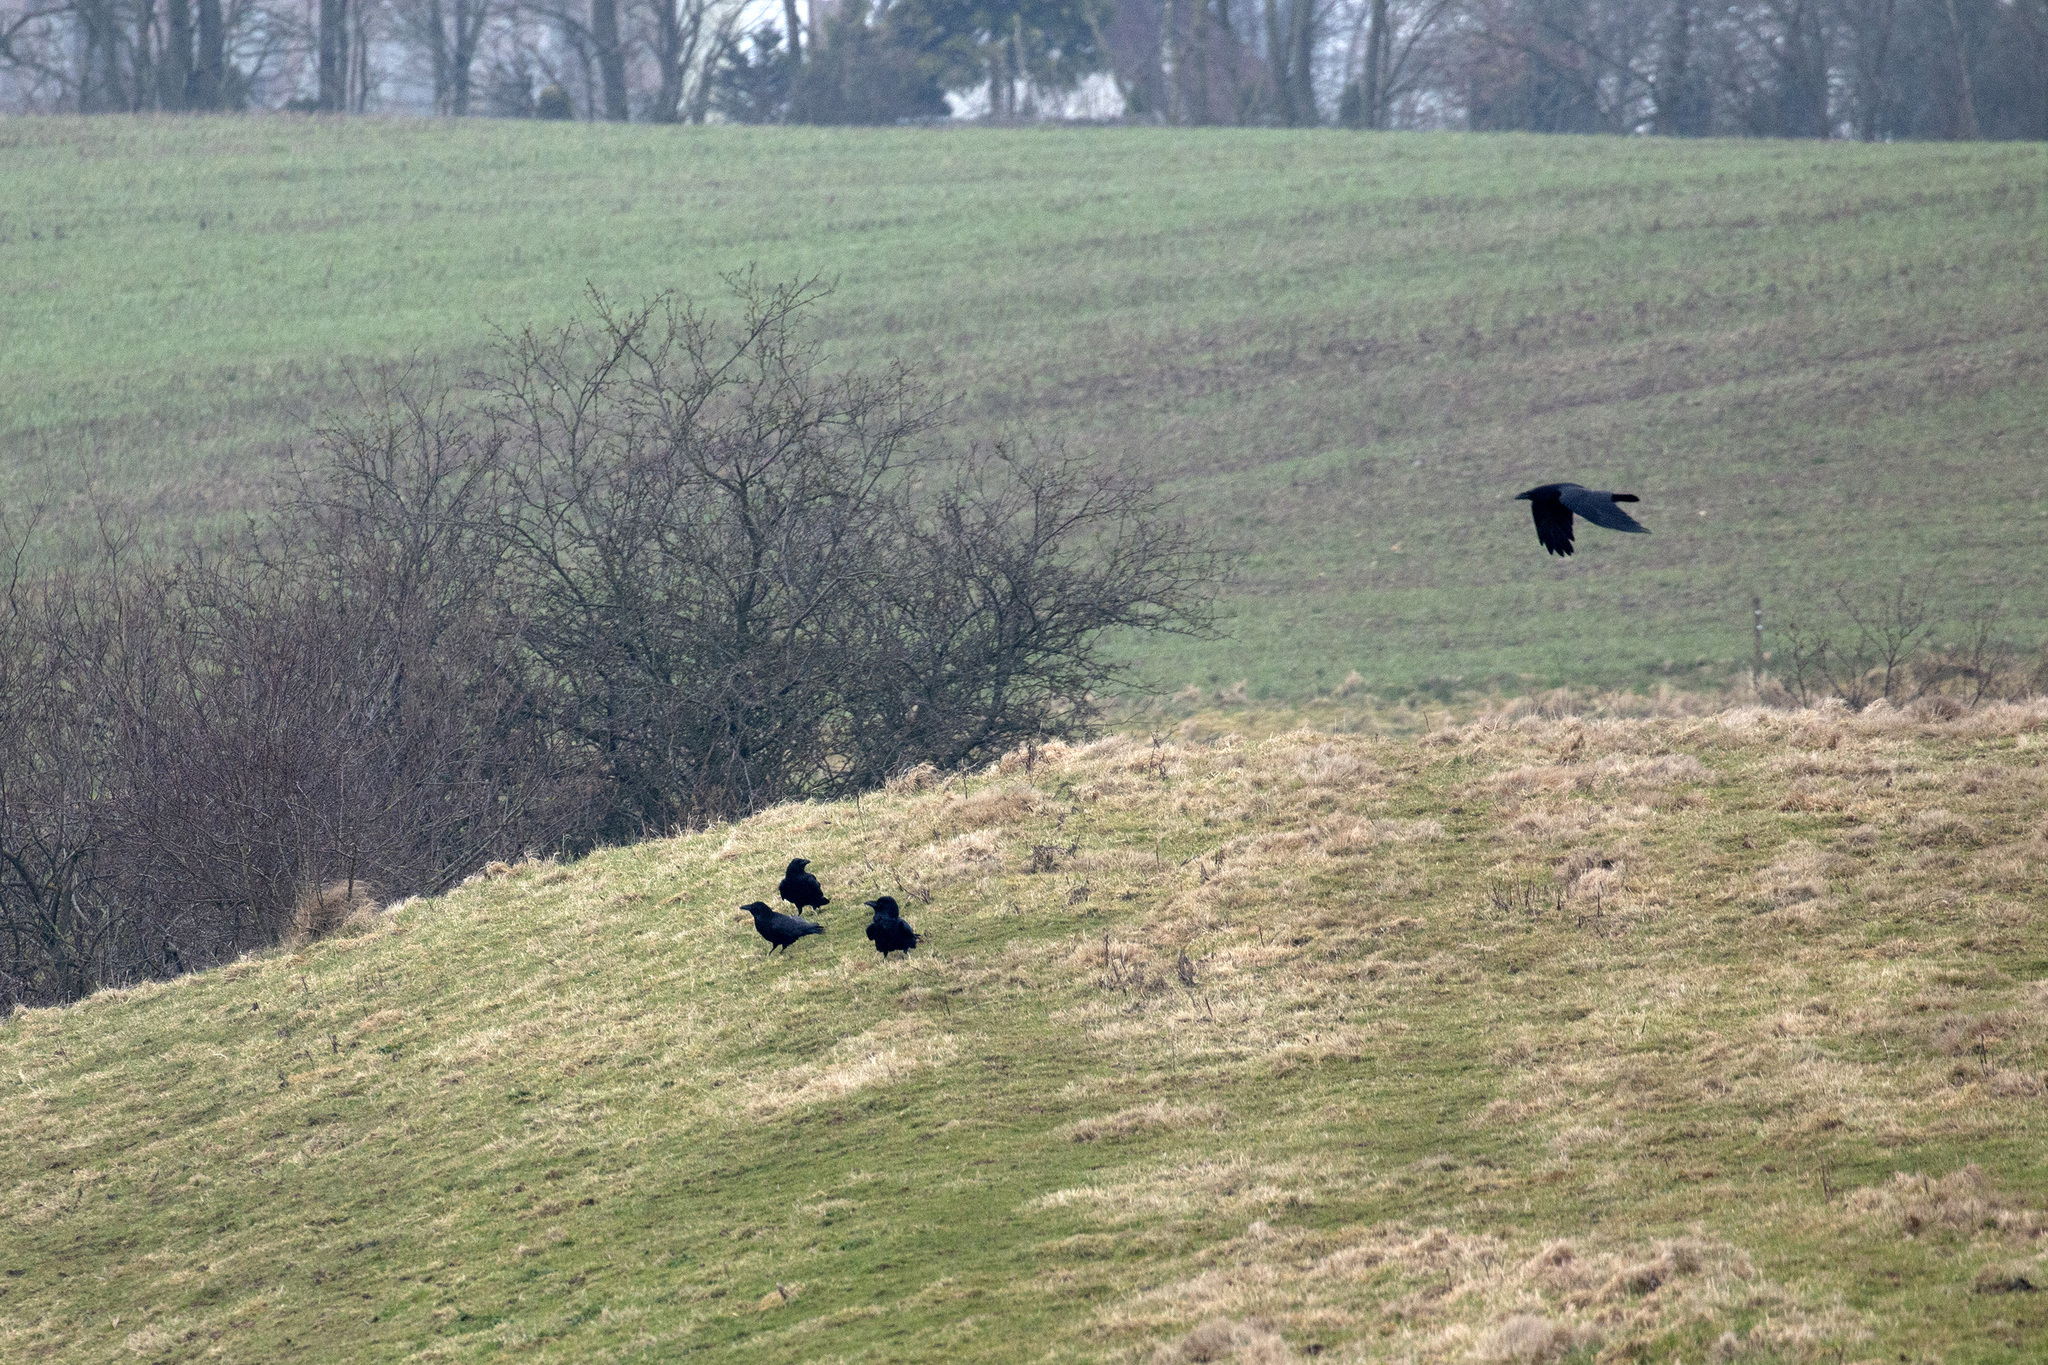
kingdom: Animalia
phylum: Chordata
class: Aves
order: Passeriformes
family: Corvidae
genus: Corvus
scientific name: Corvus corax
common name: Common raven
